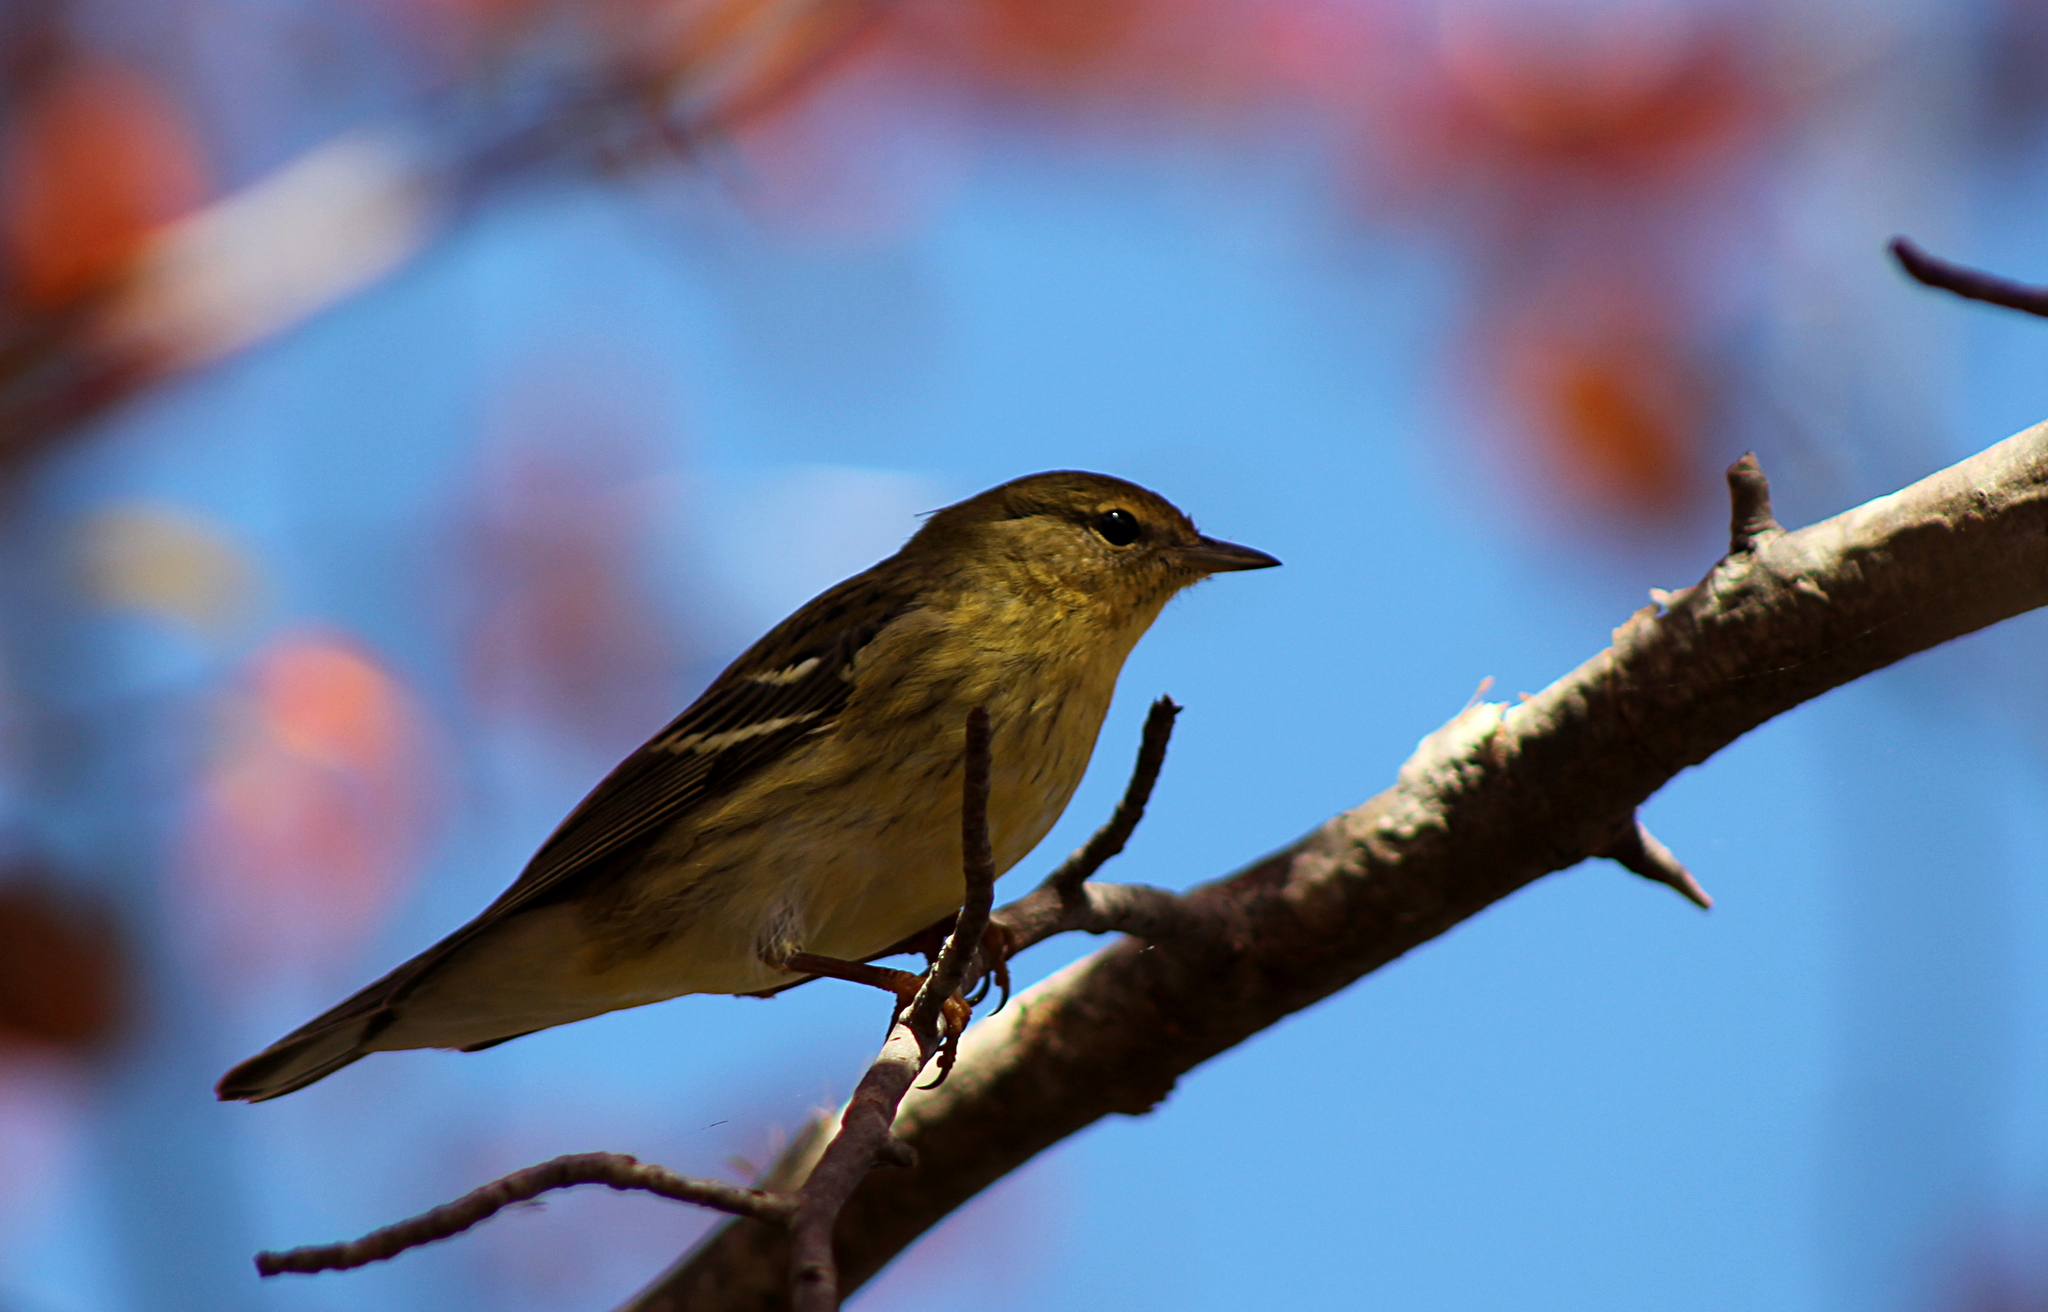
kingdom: Animalia
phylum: Chordata
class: Aves
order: Passeriformes
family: Parulidae
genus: Setophaga
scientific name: Setophaga striata
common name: Blackpoll warbler
